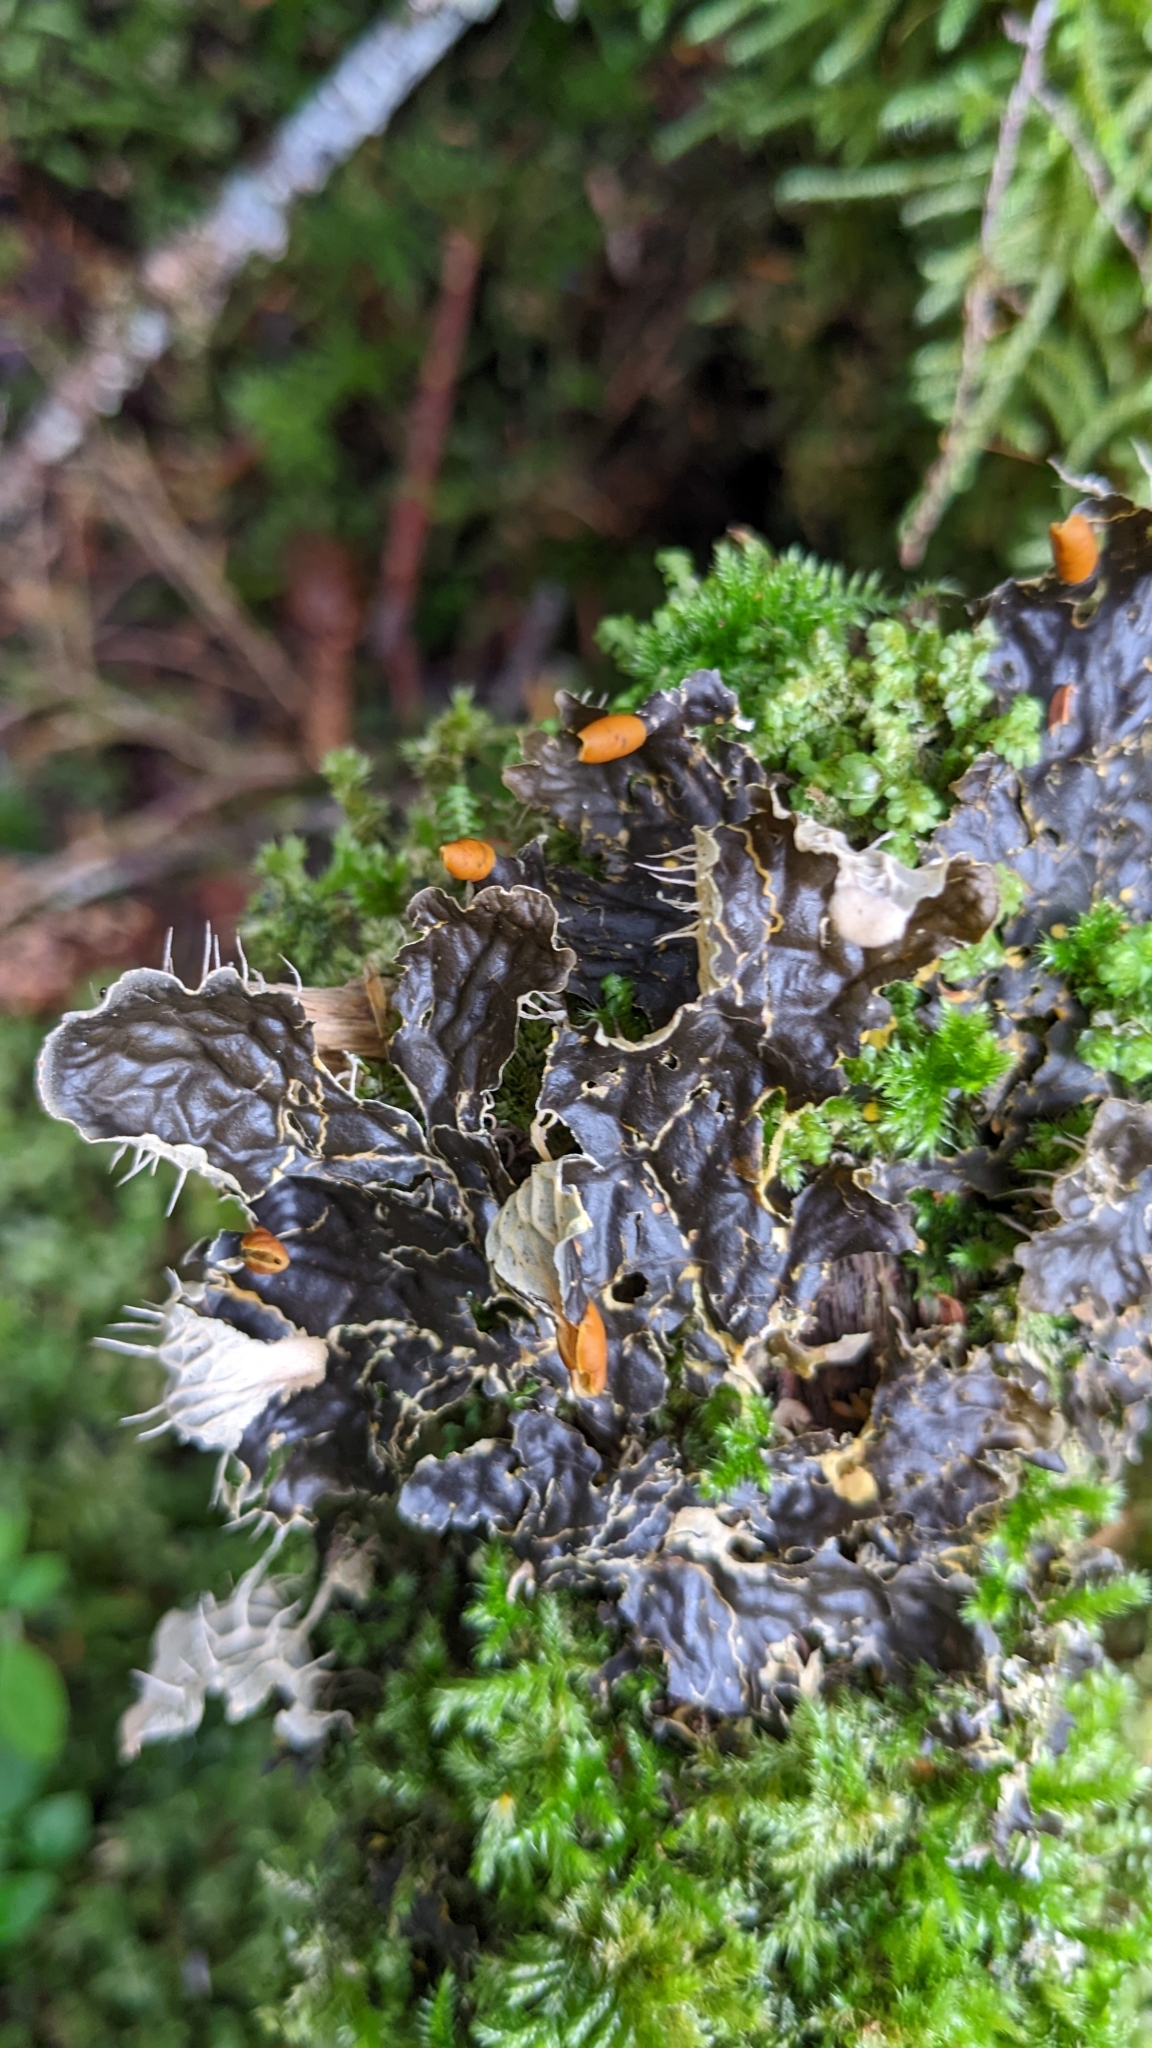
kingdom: Fungi
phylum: Ascomycota
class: Lecanoromycetes
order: Peltigerales
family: Peltigeraceae
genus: Peltigera
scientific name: Peltigera membranacea
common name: Membranous pelt lichen
